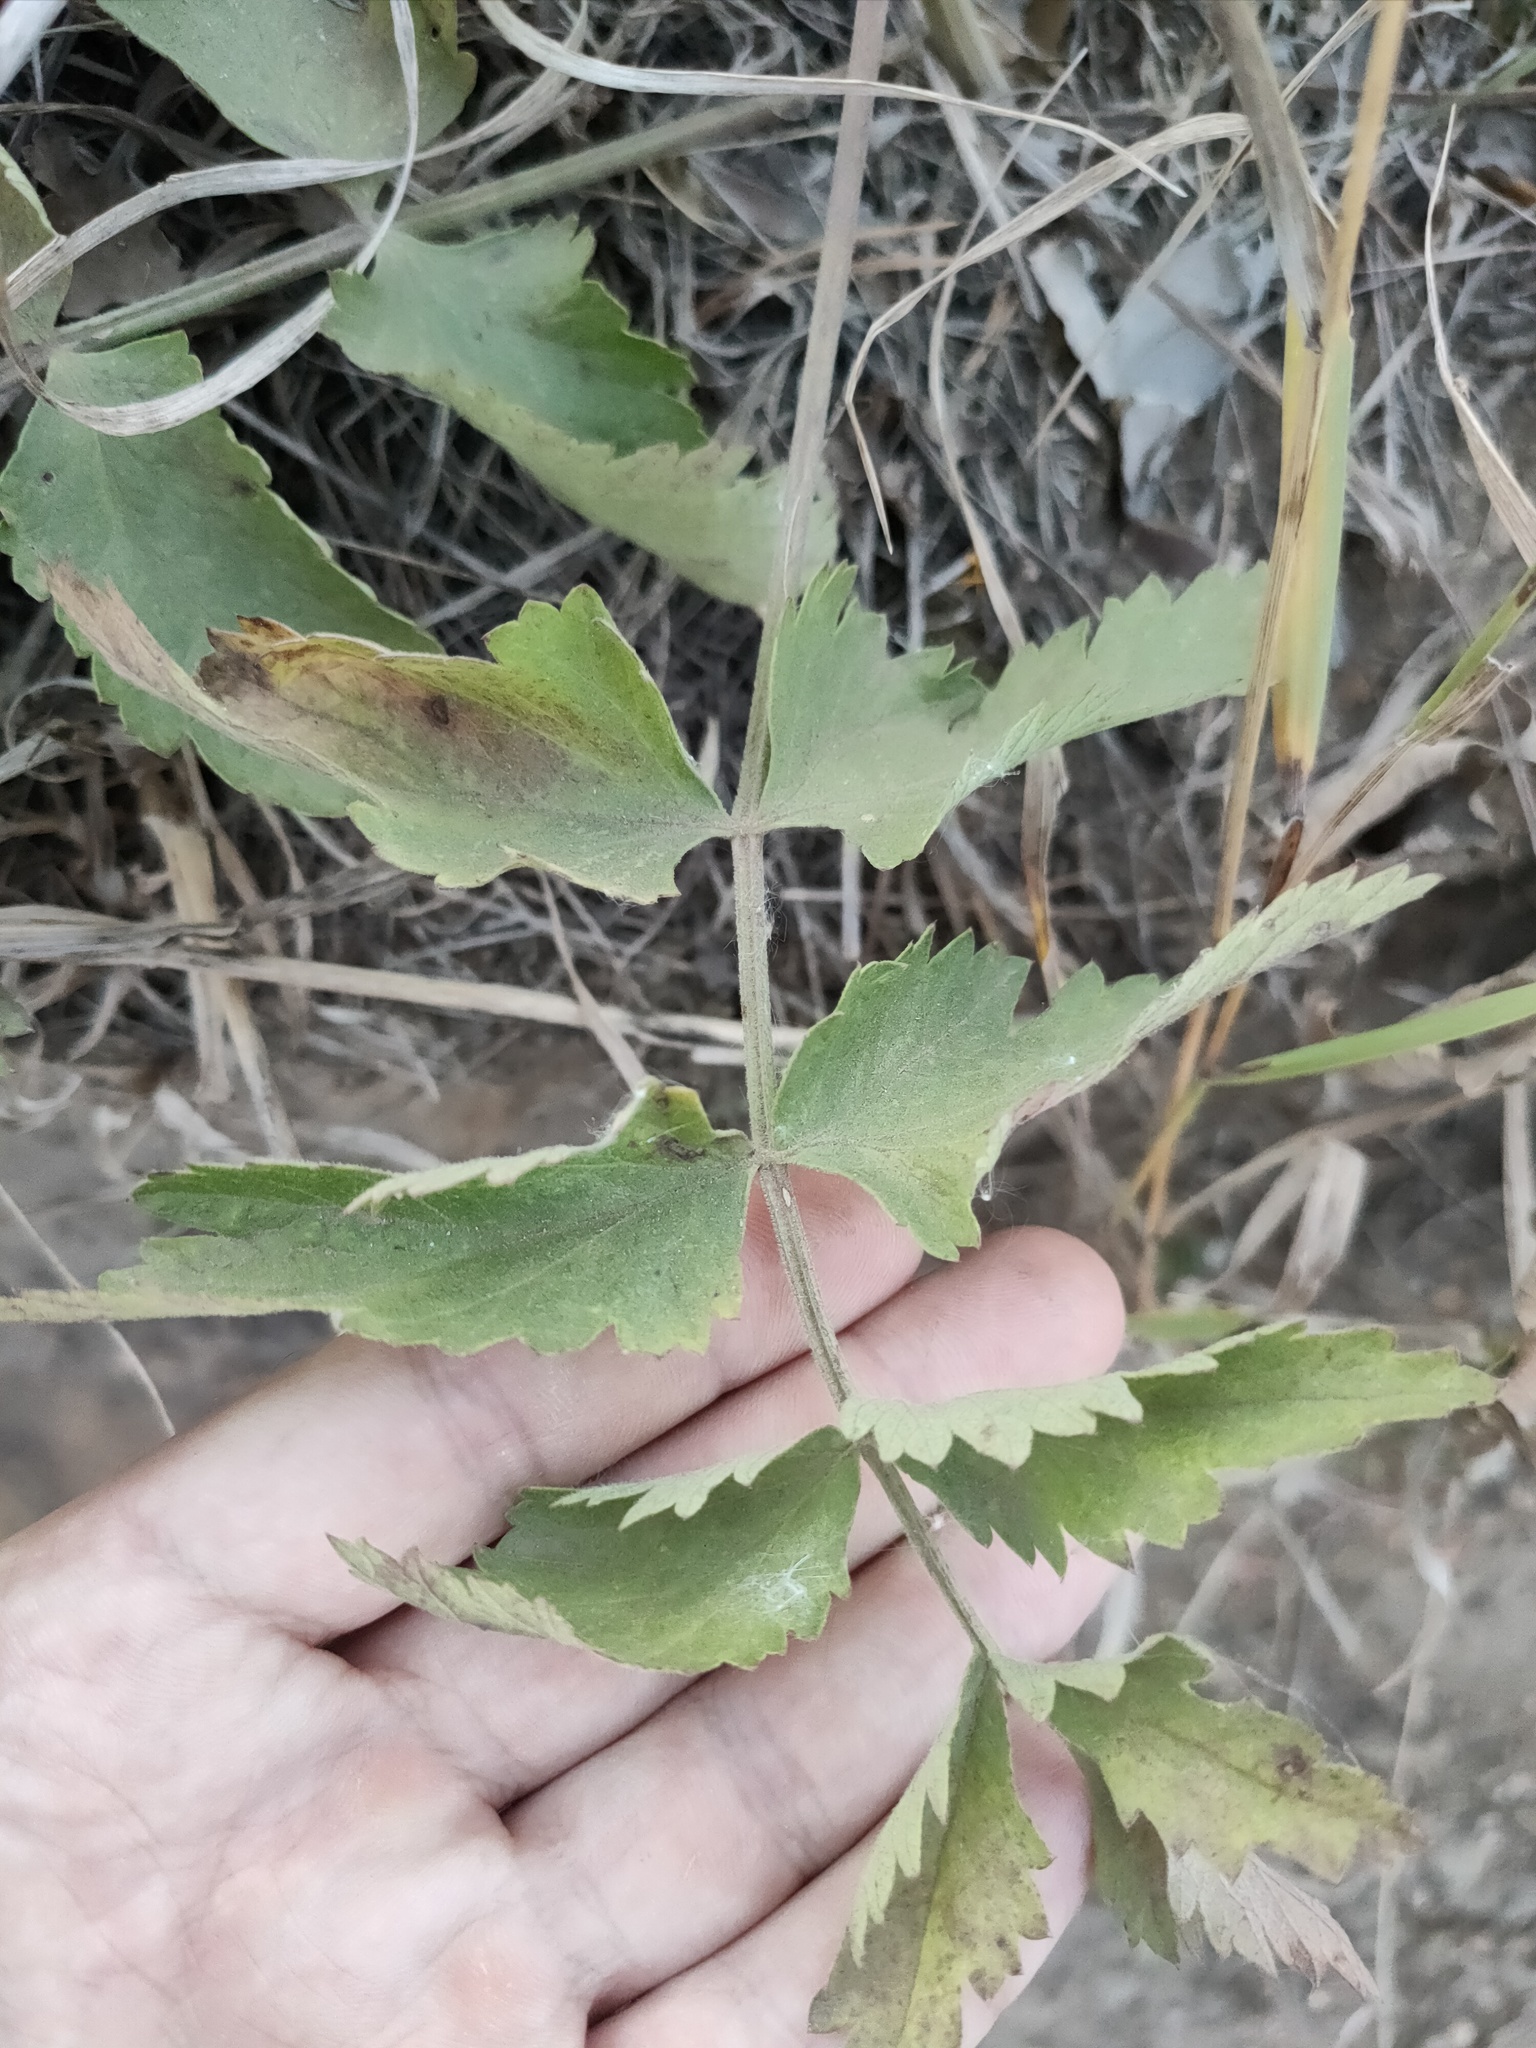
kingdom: Plantae
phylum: Tracheophyta
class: Magnoliopsida
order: Apiales
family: Apiaceae
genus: Pastinaca
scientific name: Pastinaca sativa
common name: Wild parsnip
